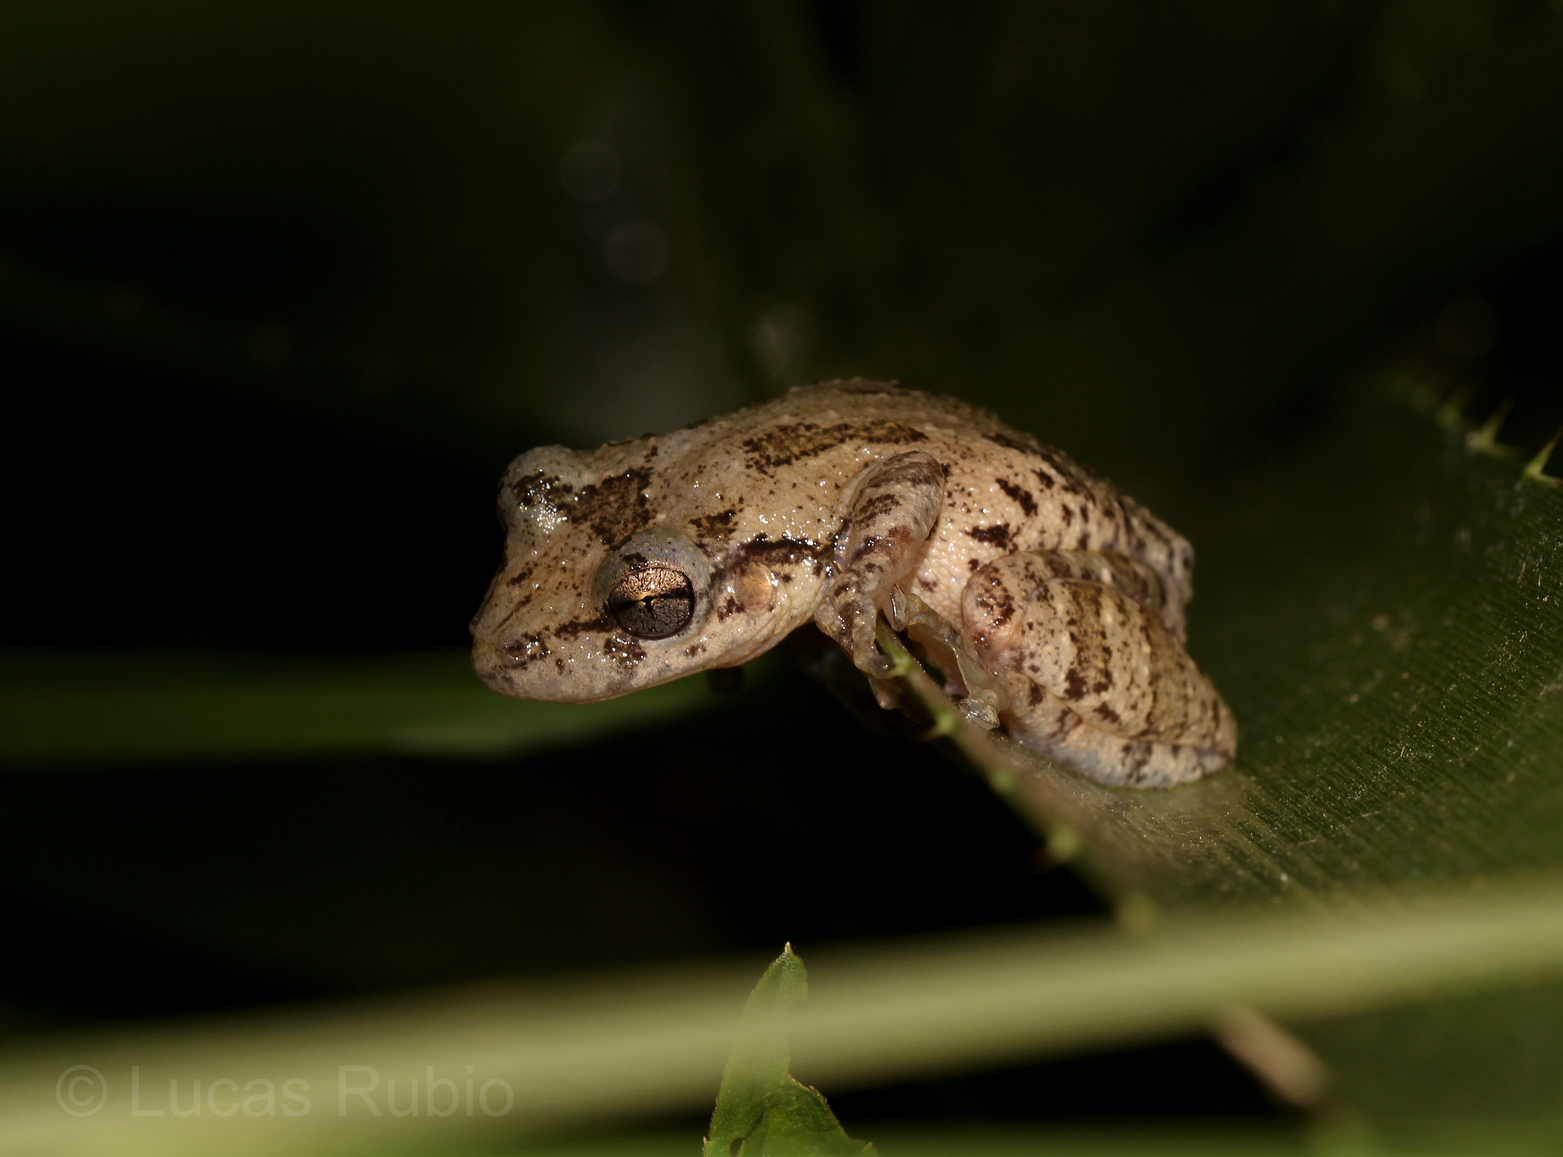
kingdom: Animalia
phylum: Chordata
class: Amphibia
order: Anura
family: Hylidae
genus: Scinax
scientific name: Scinax granulatus
